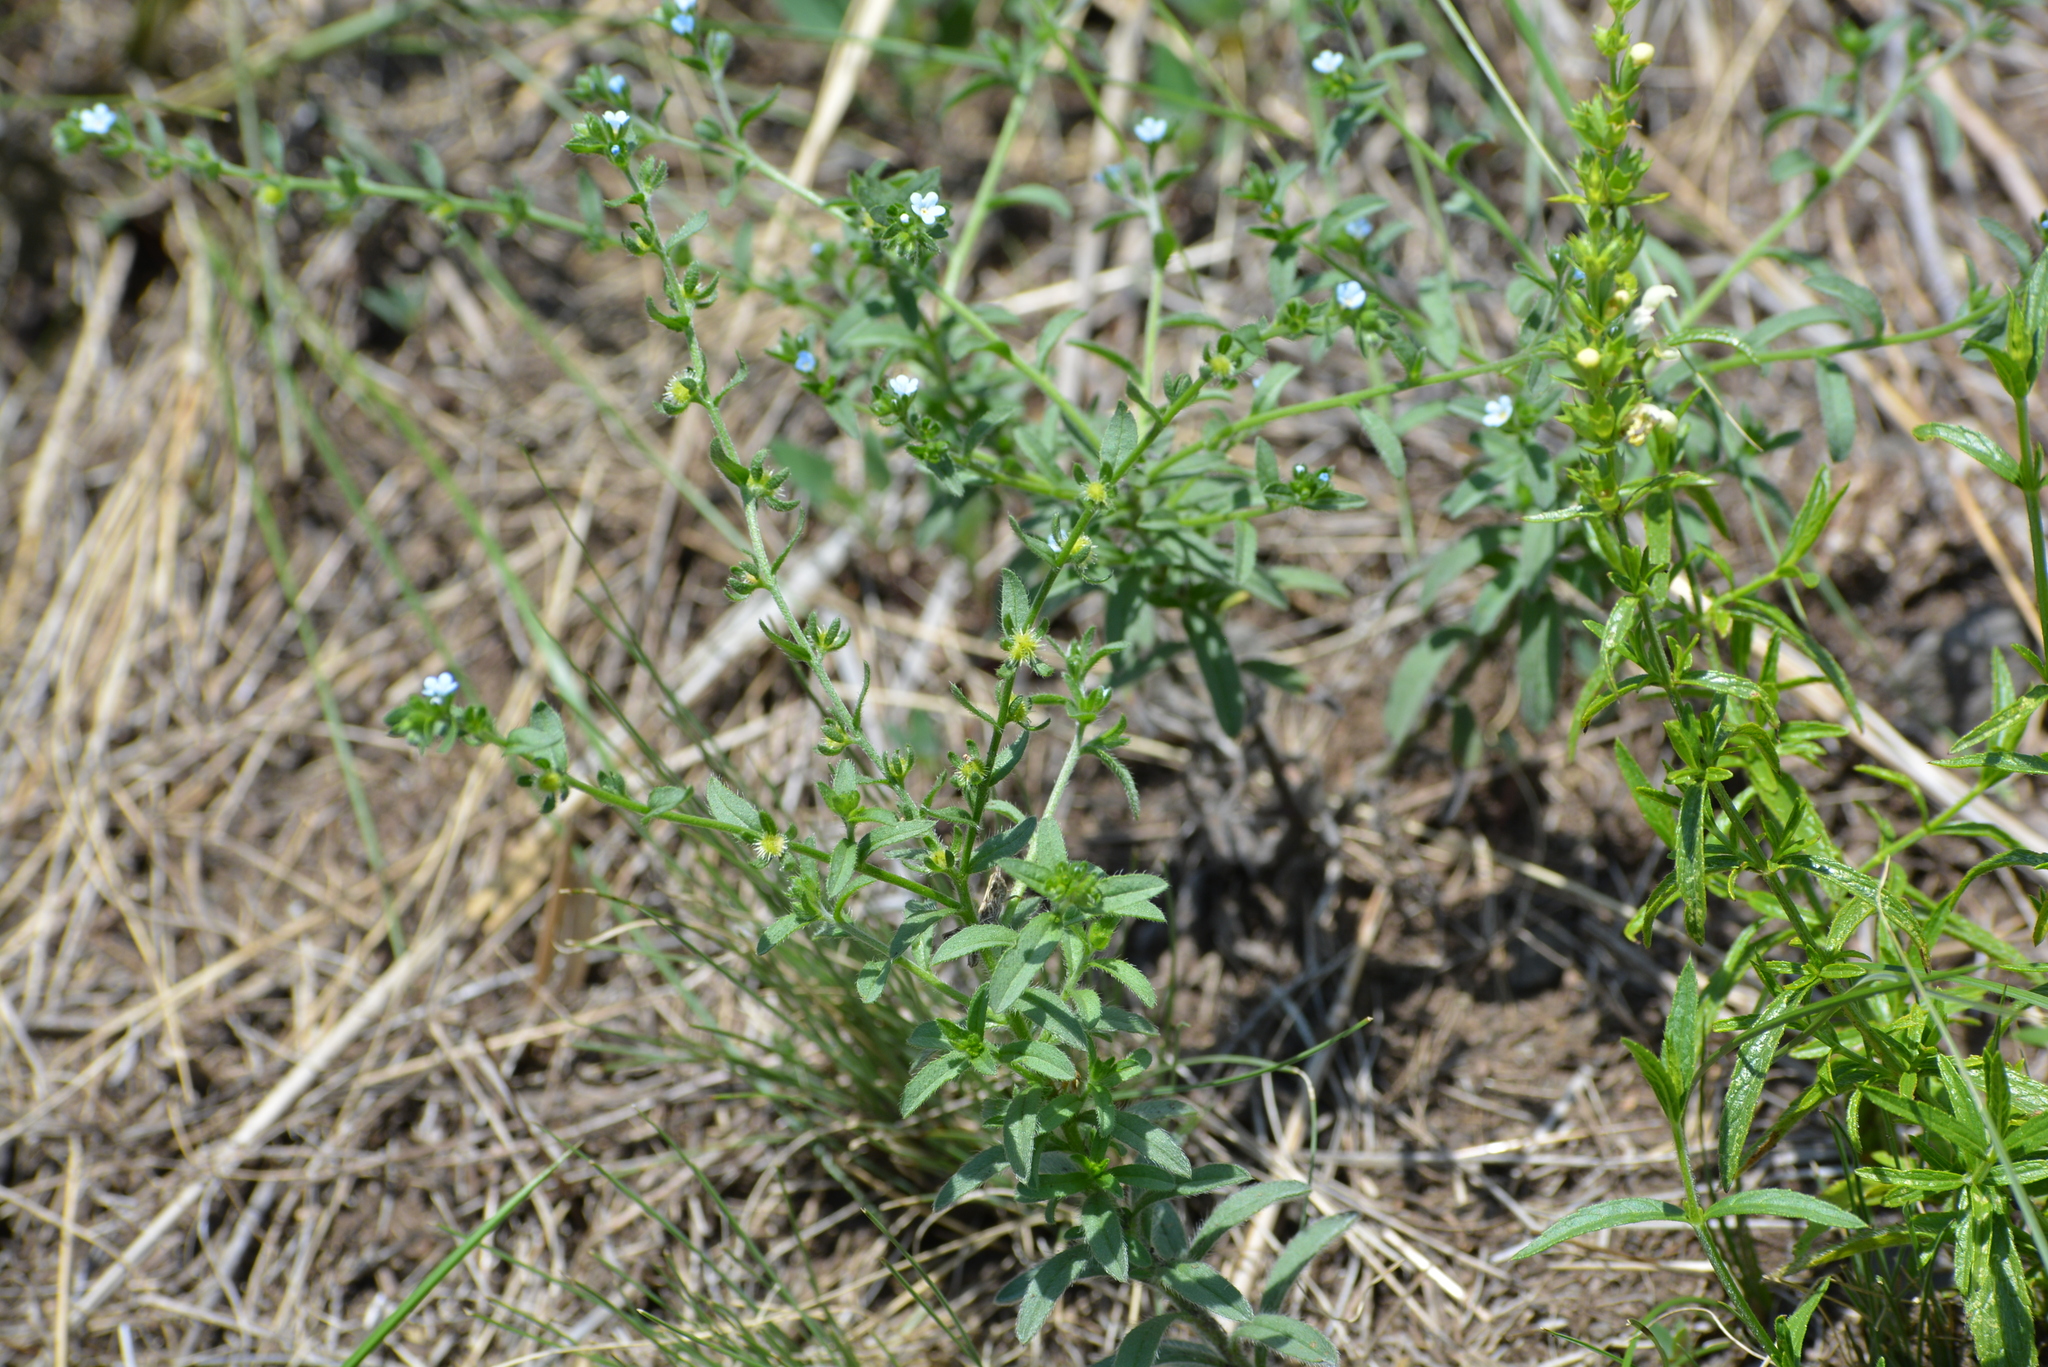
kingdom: Plantae
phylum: Tracheophyta
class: Magnoliopsida
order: Boraginales
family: Boraginaceae
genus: Lappula
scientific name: Lappula squarrosa
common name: European stickseed
